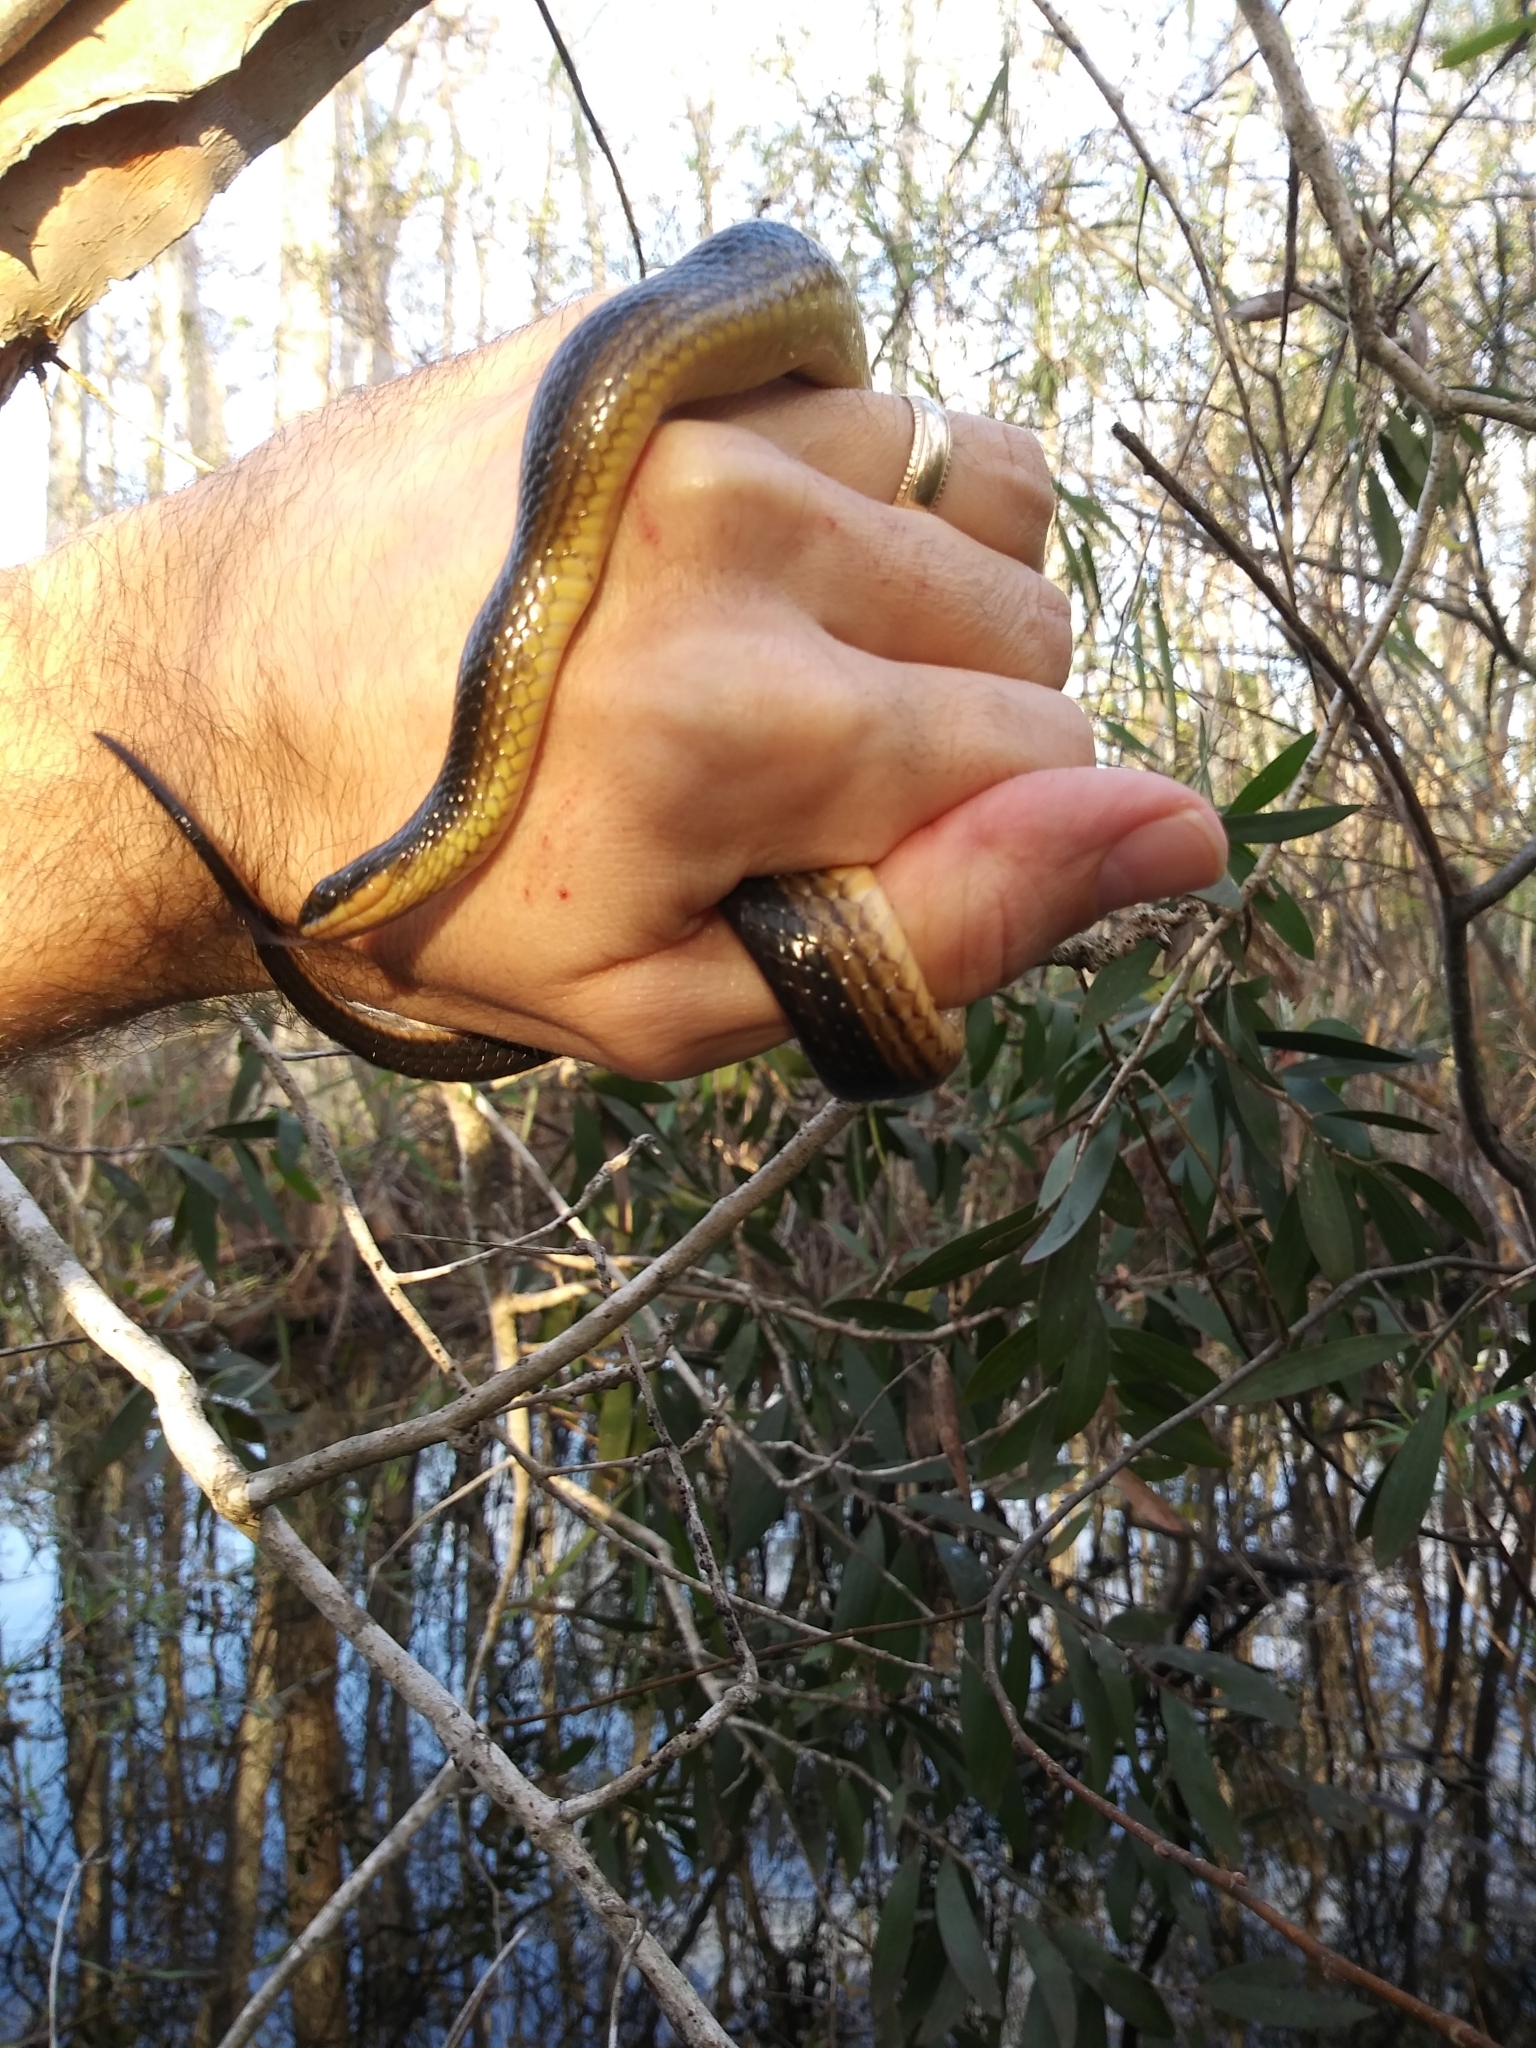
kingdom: Animalia
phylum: Chordata
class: Squamata
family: Colubridae
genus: Liodytes
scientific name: Liodytes alleni
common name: Striped crayfish snake
